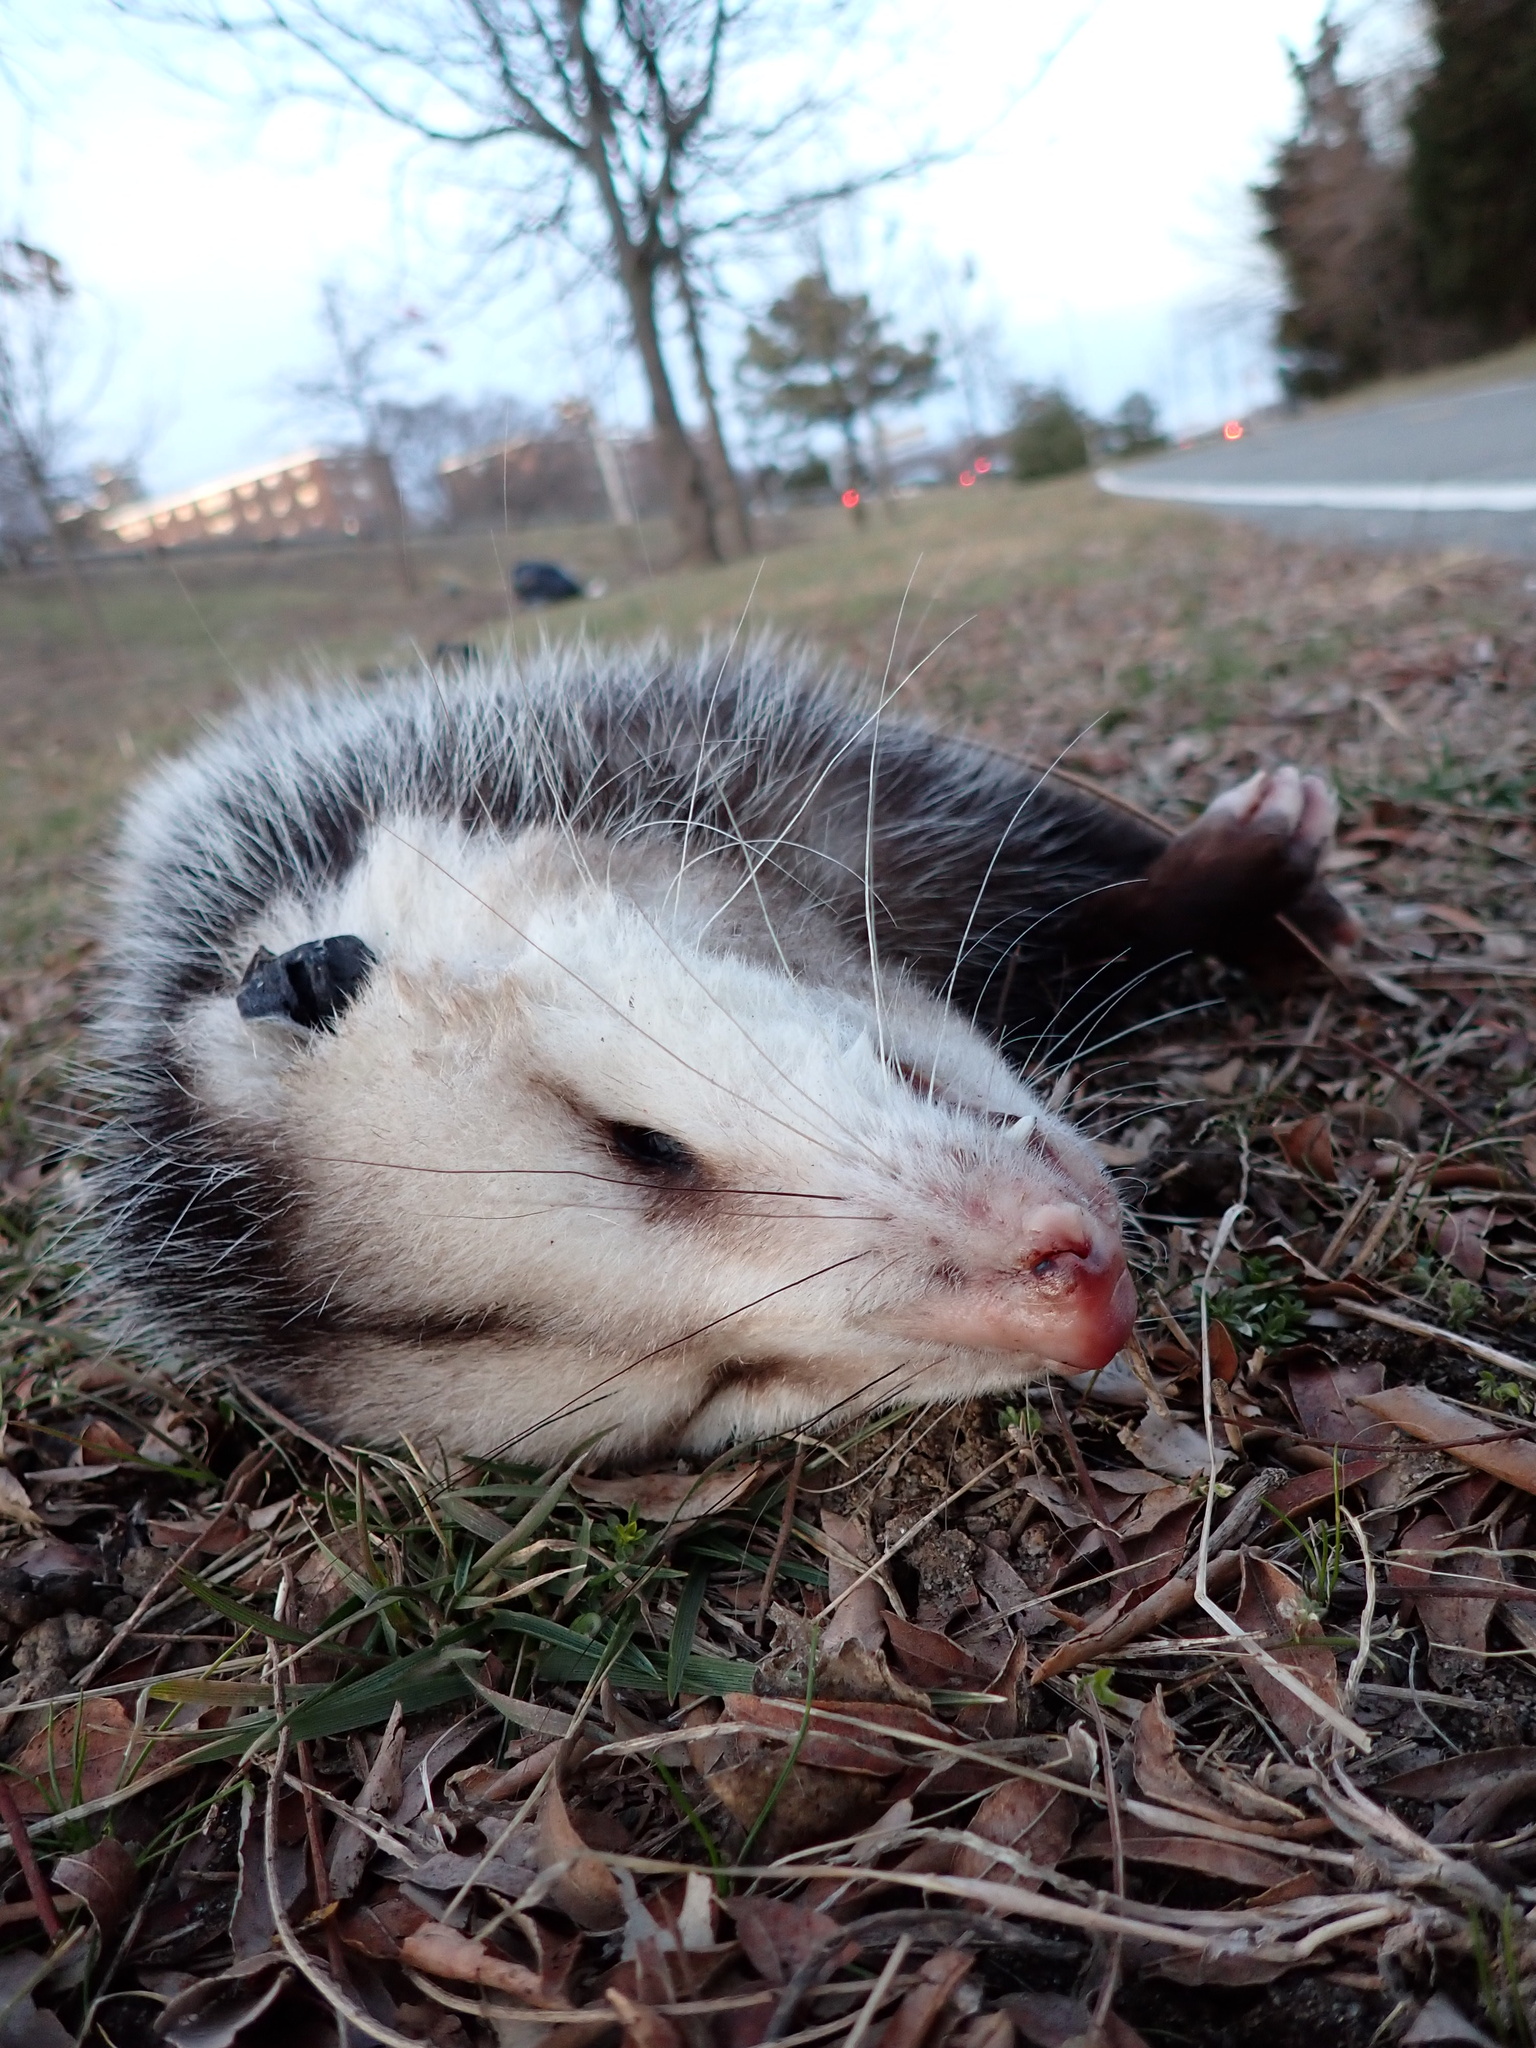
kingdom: Animalia
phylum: Chordata
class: Mammalia
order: Didelphimorphia
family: Didelphidae
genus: Didelphis
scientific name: Didelphis virginiana
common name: Virginia opossum
